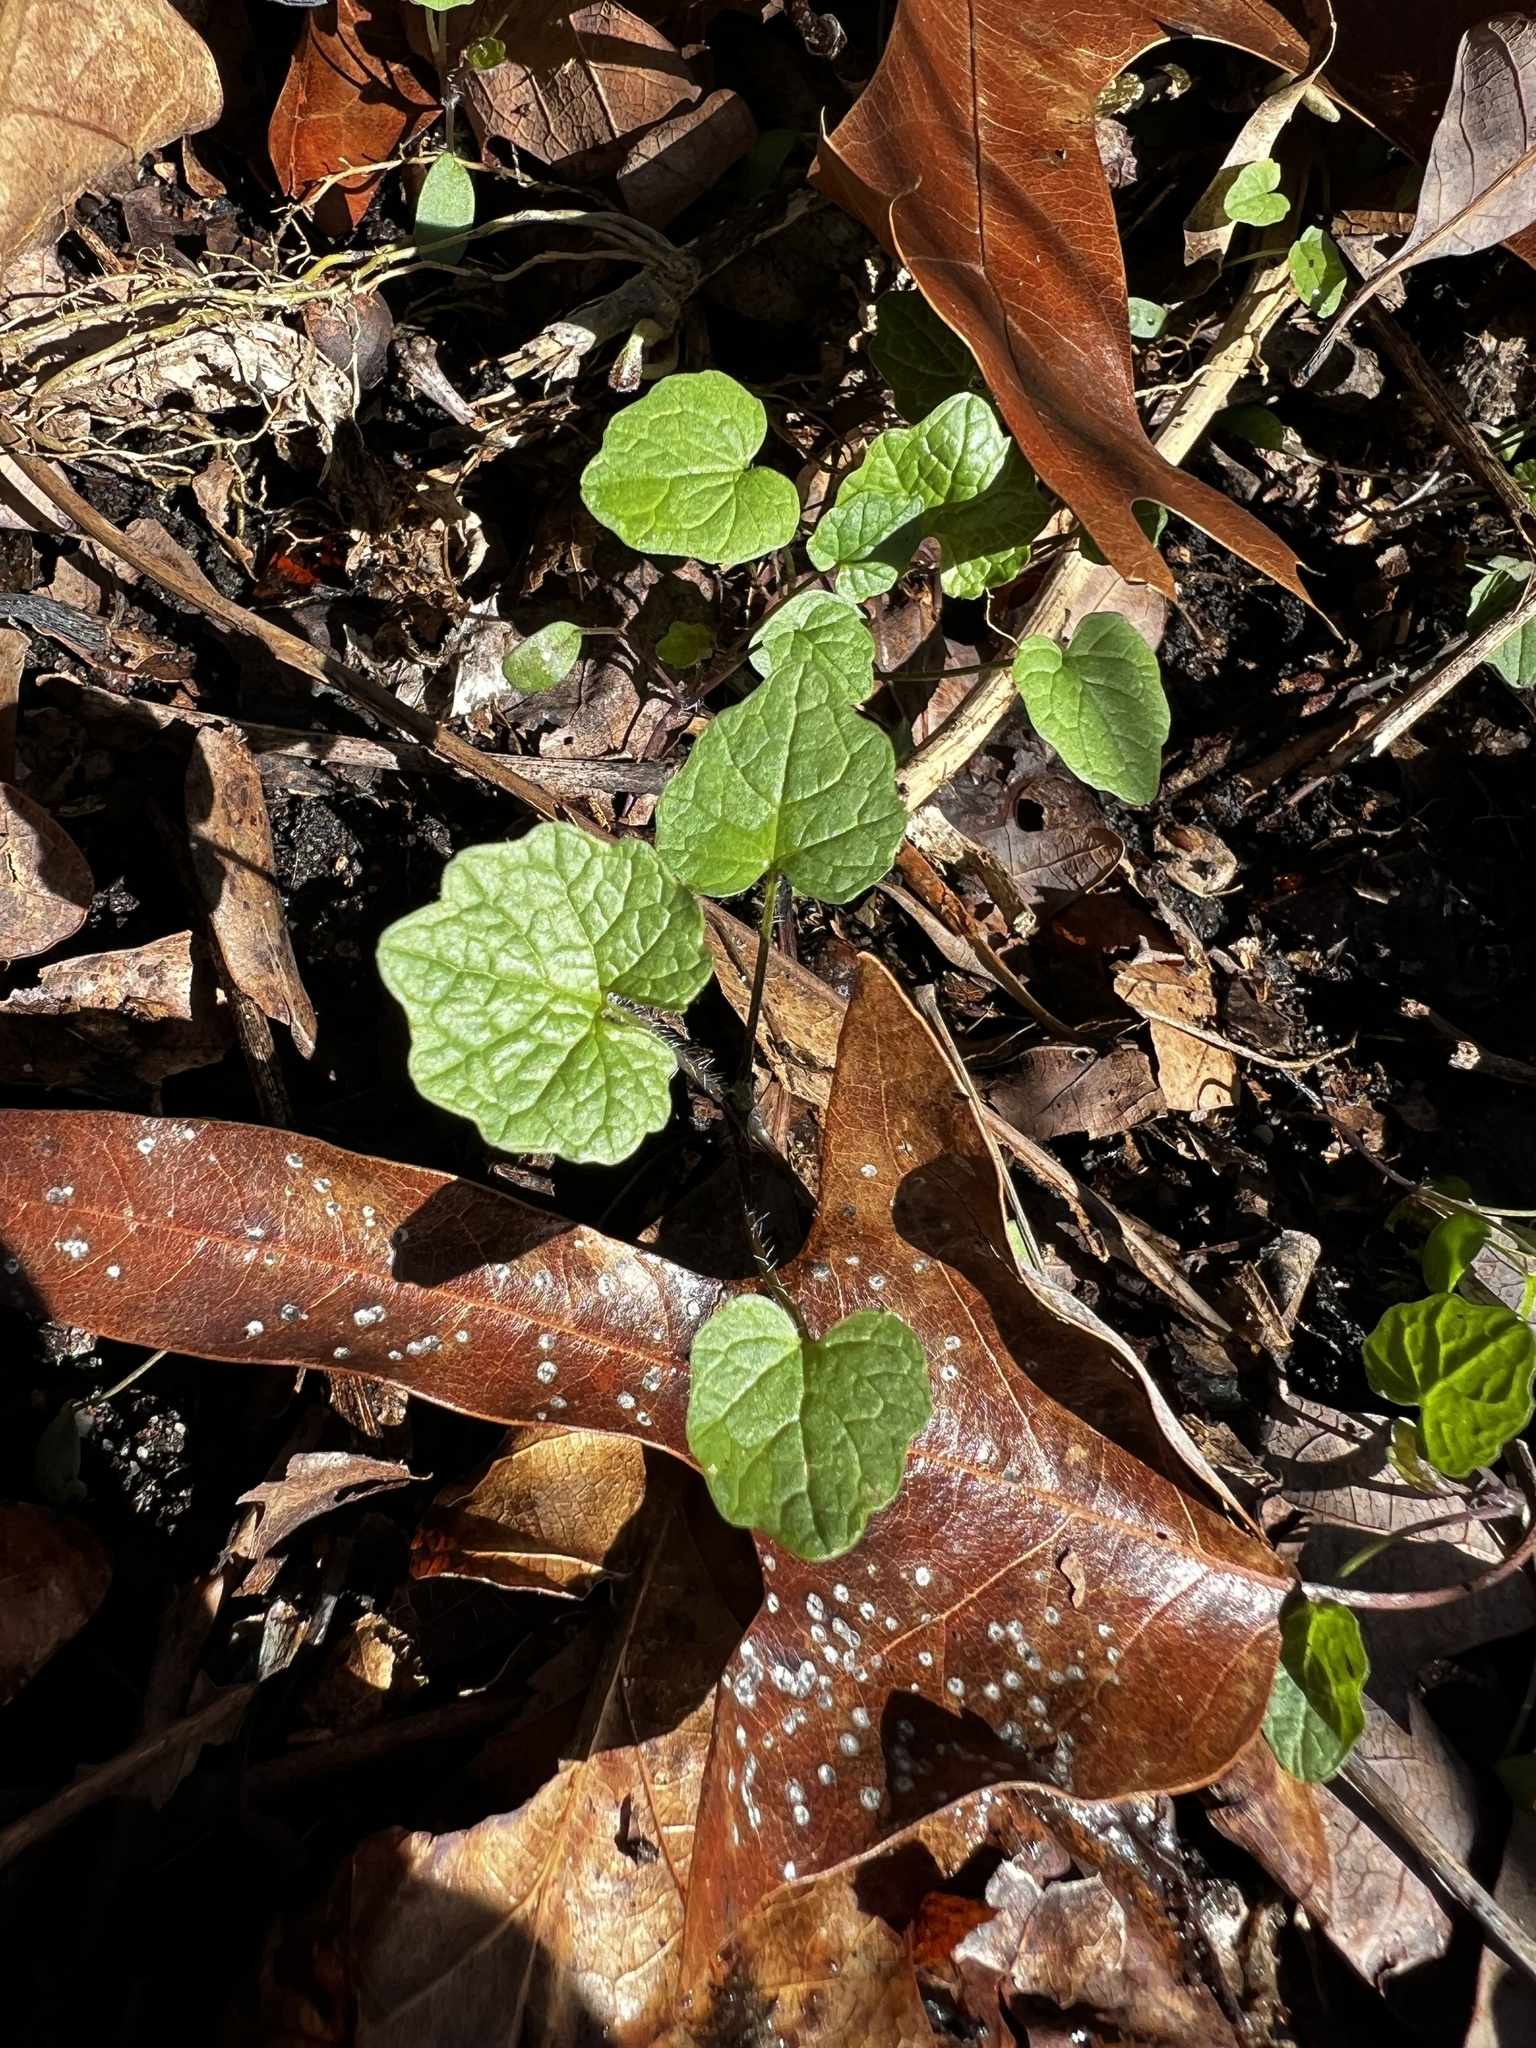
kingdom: Plantae
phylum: Tracheophyta
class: Magnoliopsida
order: Brassicales
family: Brassicaceae
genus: Alliaria
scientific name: Alliaria petiolata
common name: Garlic mustard
